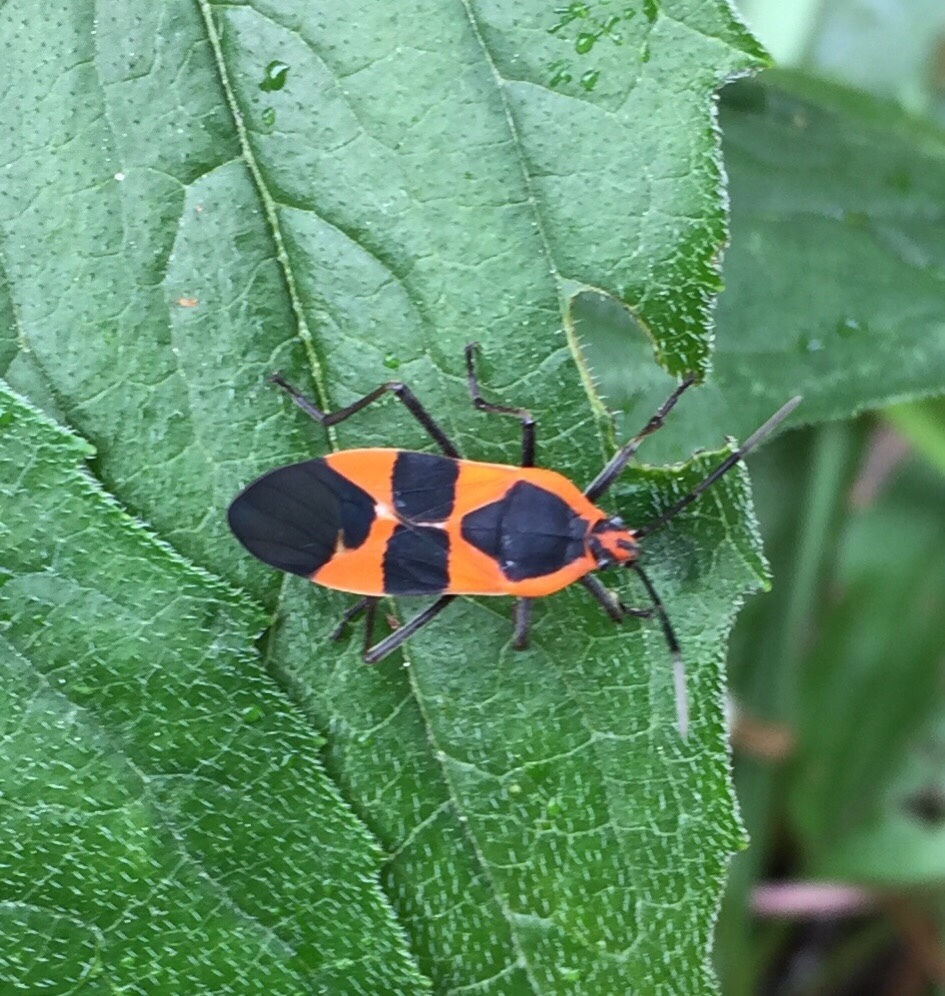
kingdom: Animalia
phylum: Arthropoda
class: Insecta
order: Hemiptera
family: Lygaeidae
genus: Oncopeltus
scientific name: Oncopeltus fasciatus
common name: Large milkweed bug
